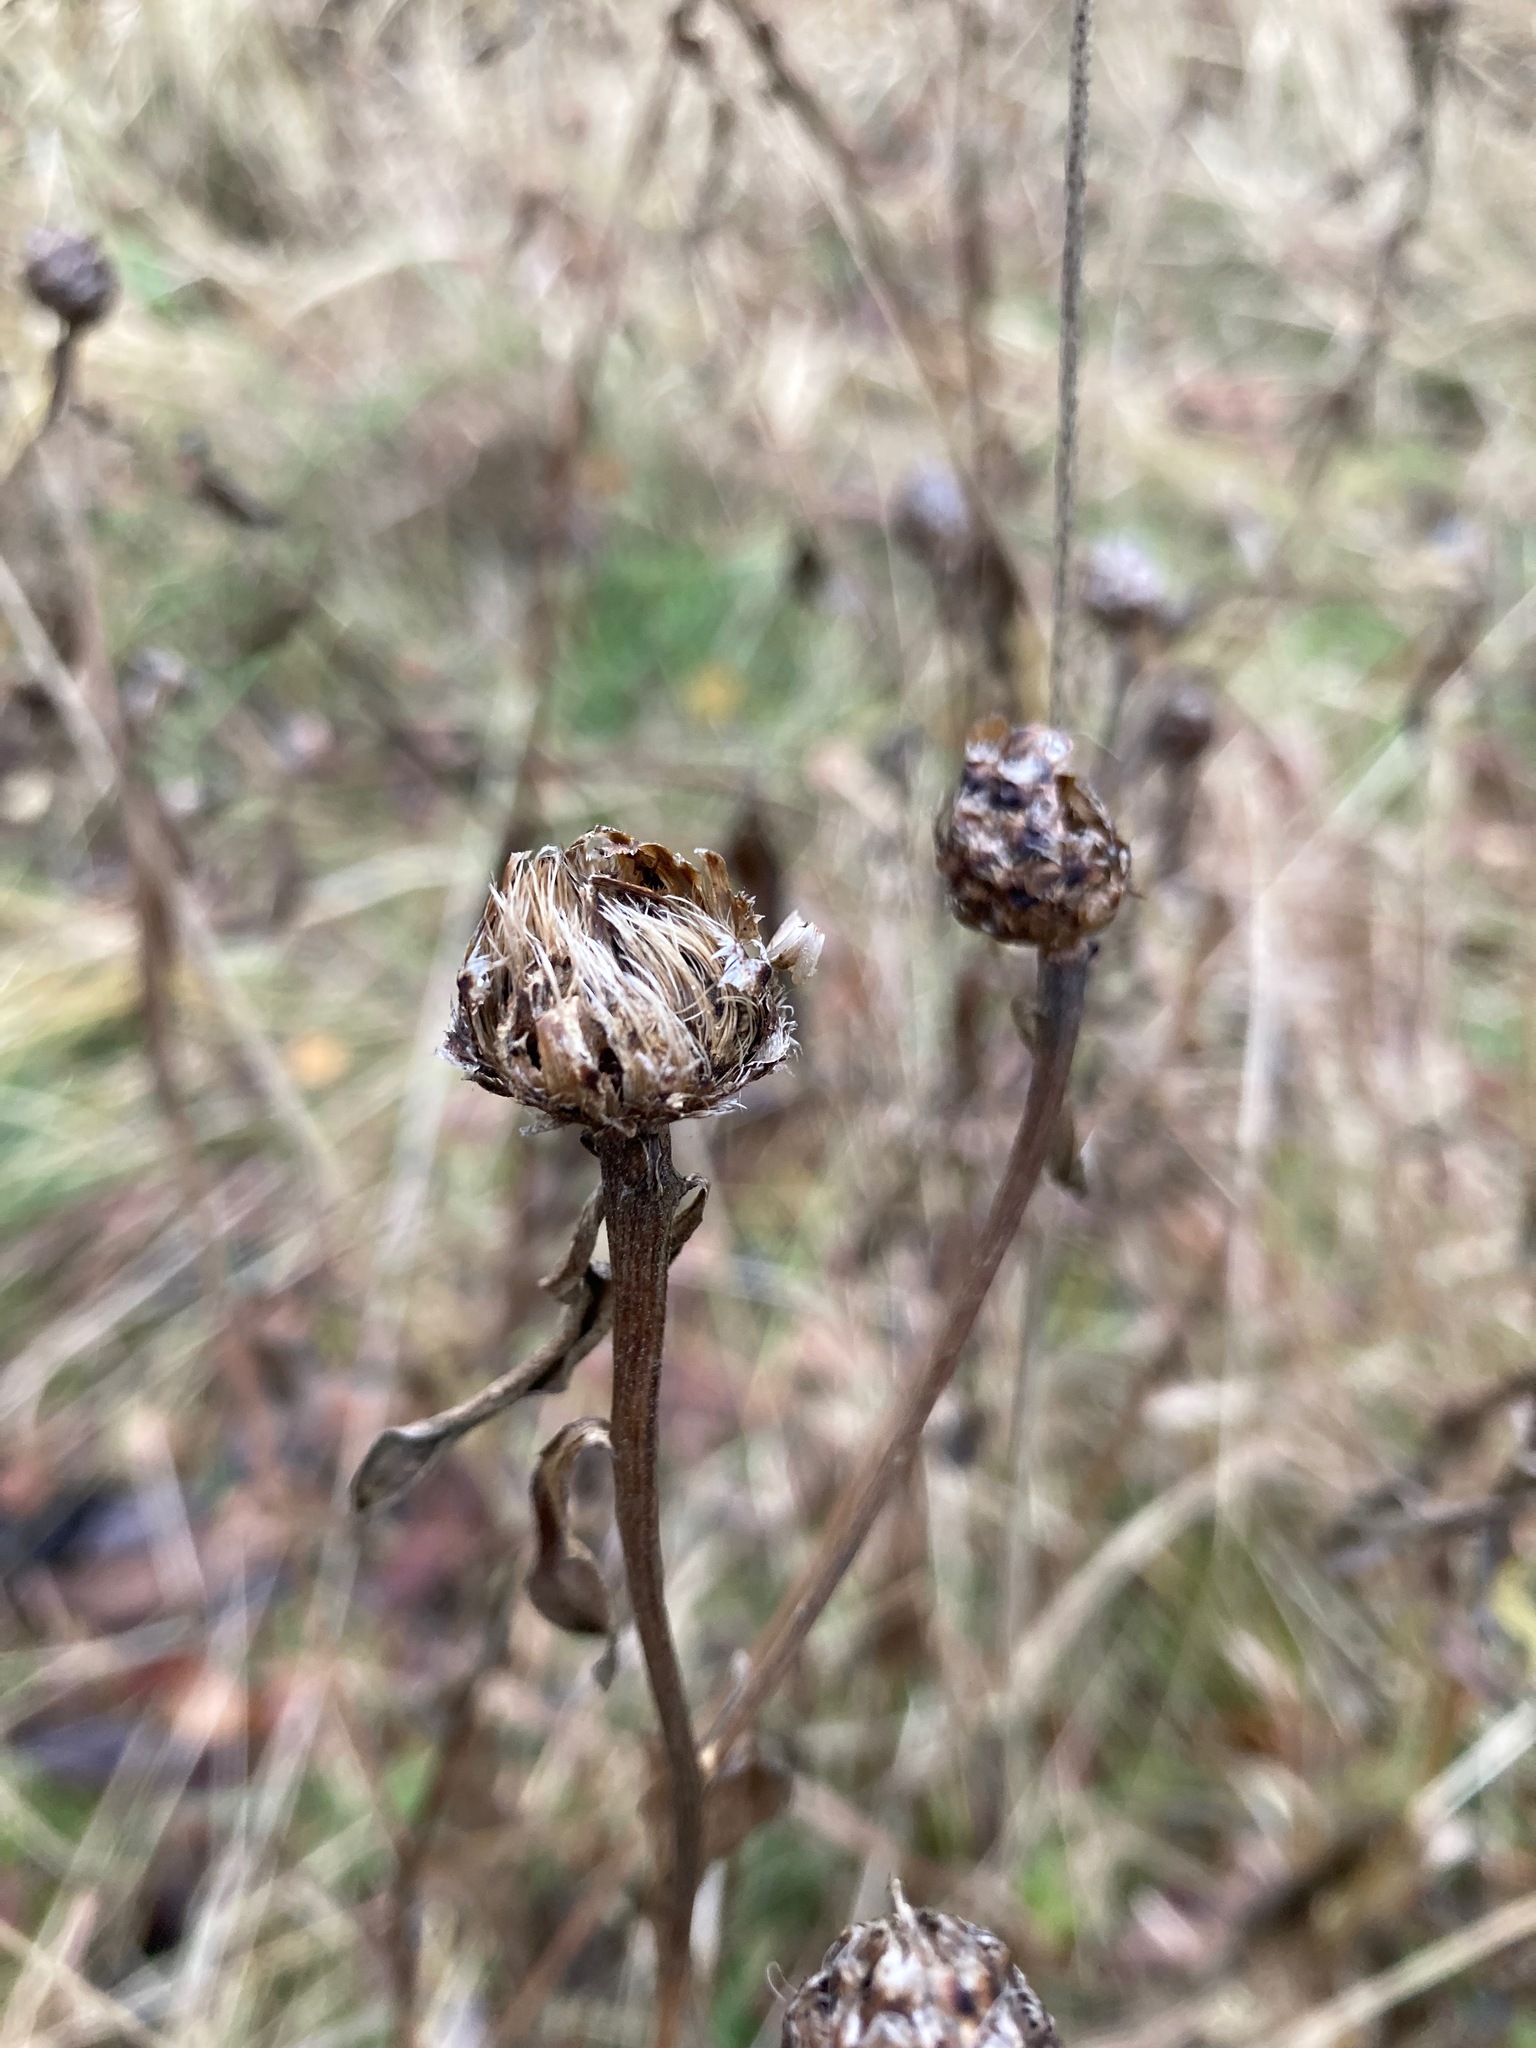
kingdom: Plantae
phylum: Tracheophyta
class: Magnoliopsida
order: Asterales
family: Asteraceae
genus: Centaurea
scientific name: Centaurea jacea
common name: Brown knapweed
